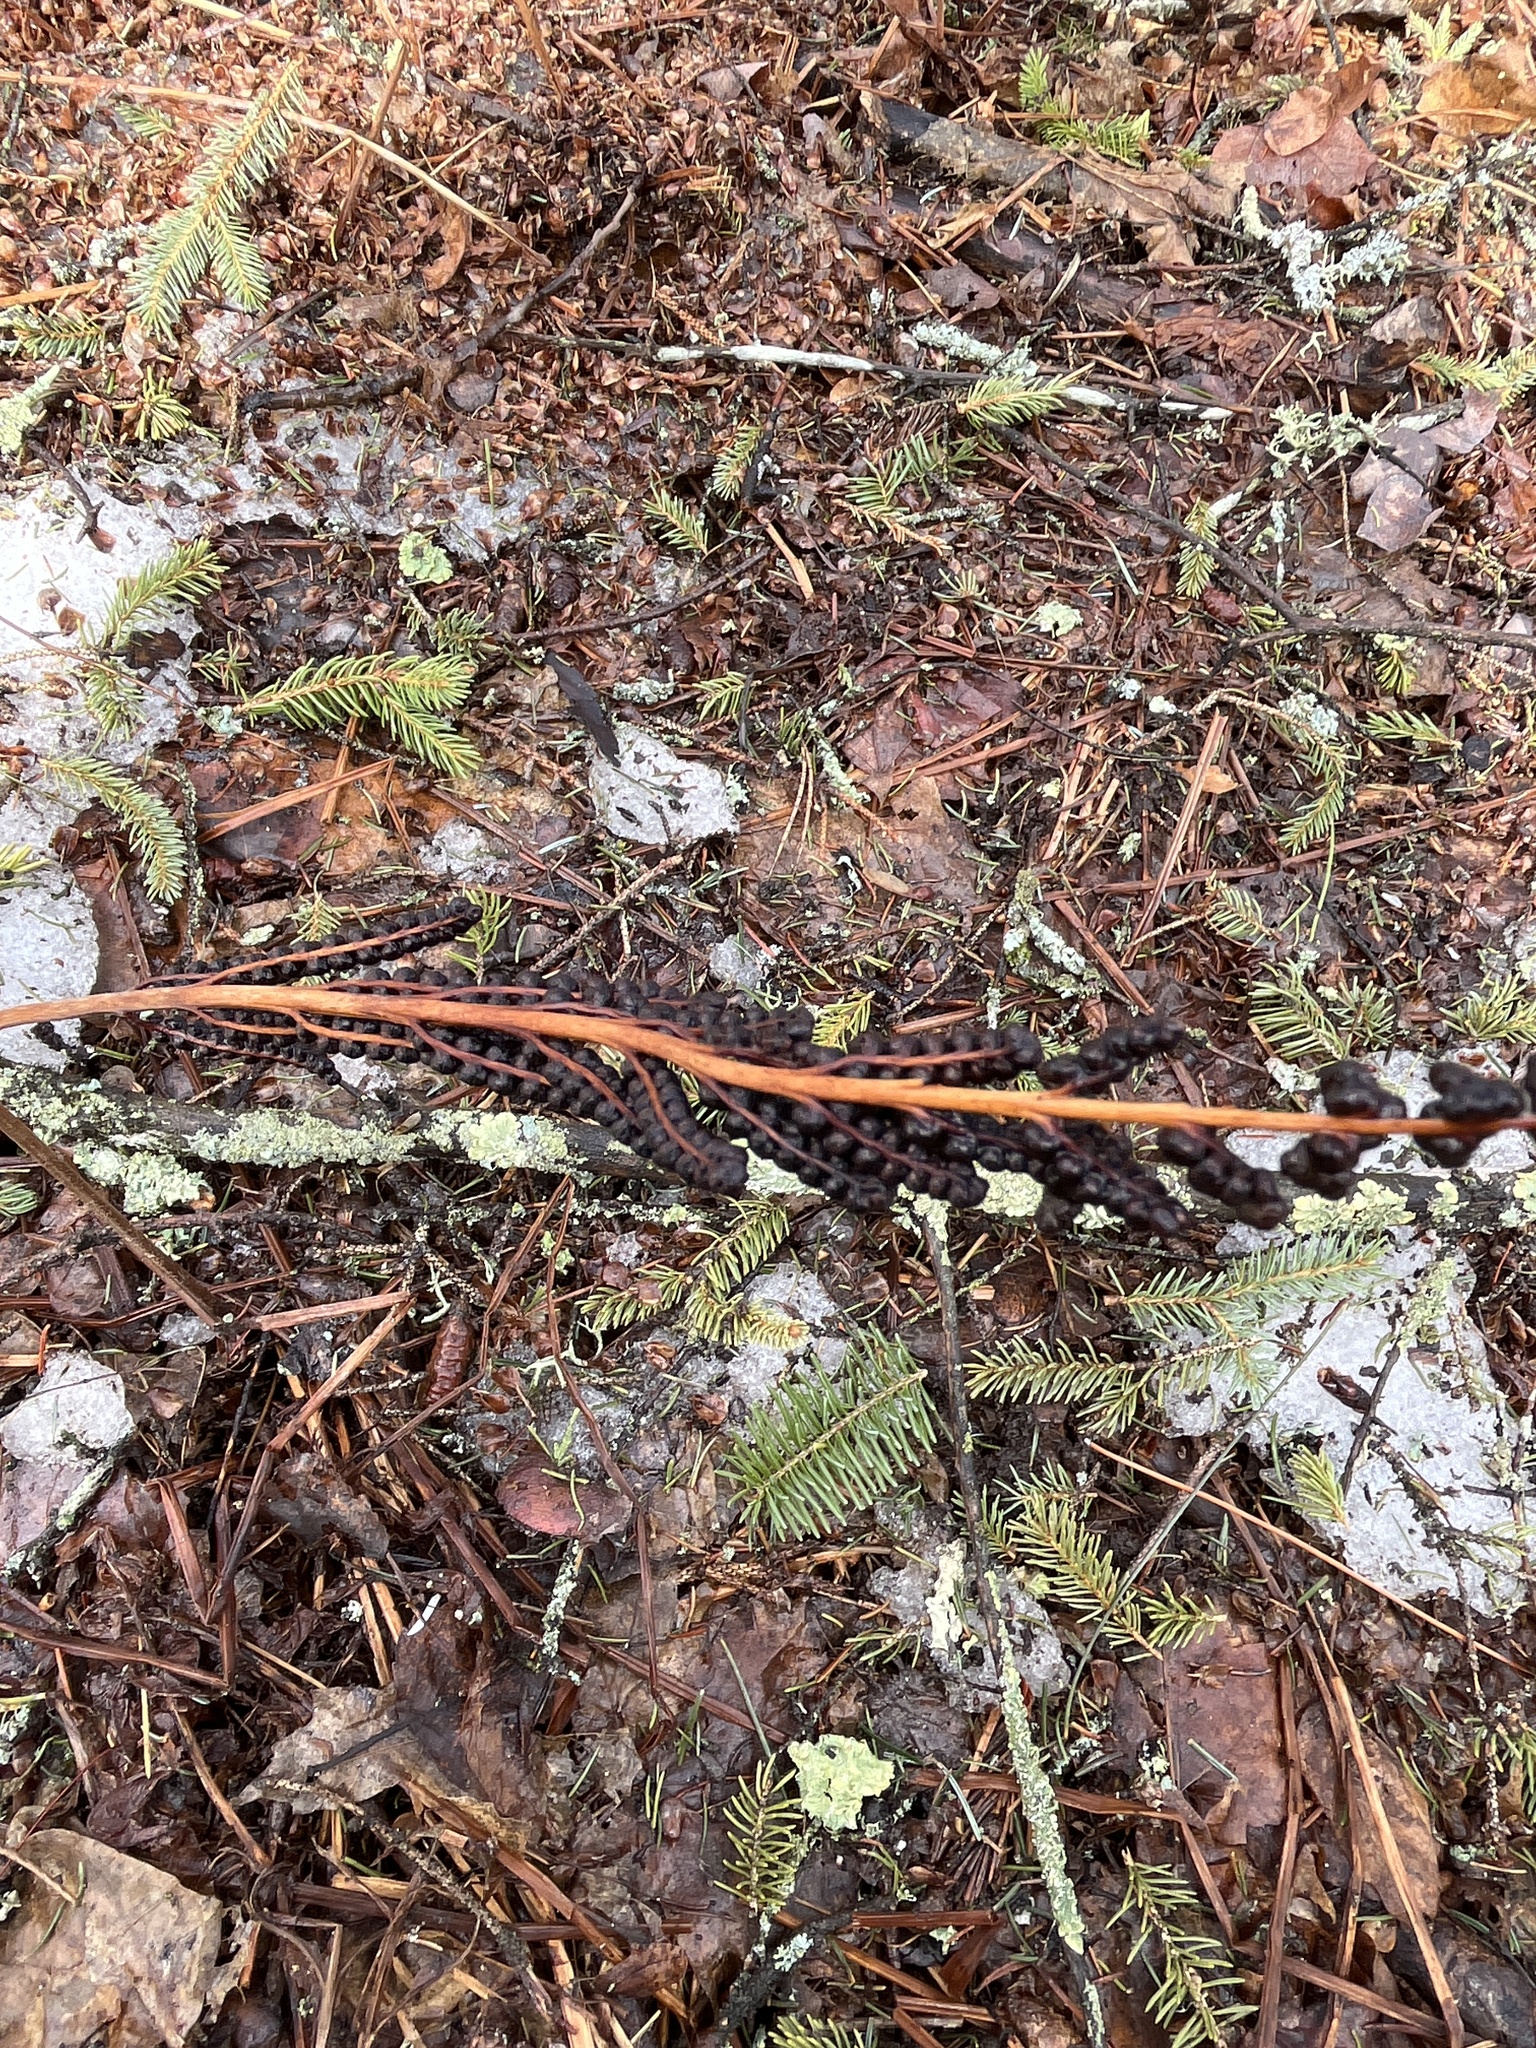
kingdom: Plantae
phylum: Tracheophyta
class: Polypodiopsida
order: Polypodiales
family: Onocleaceae
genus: Onoclea
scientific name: Onoclea sensibilis
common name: Sensitive fern
